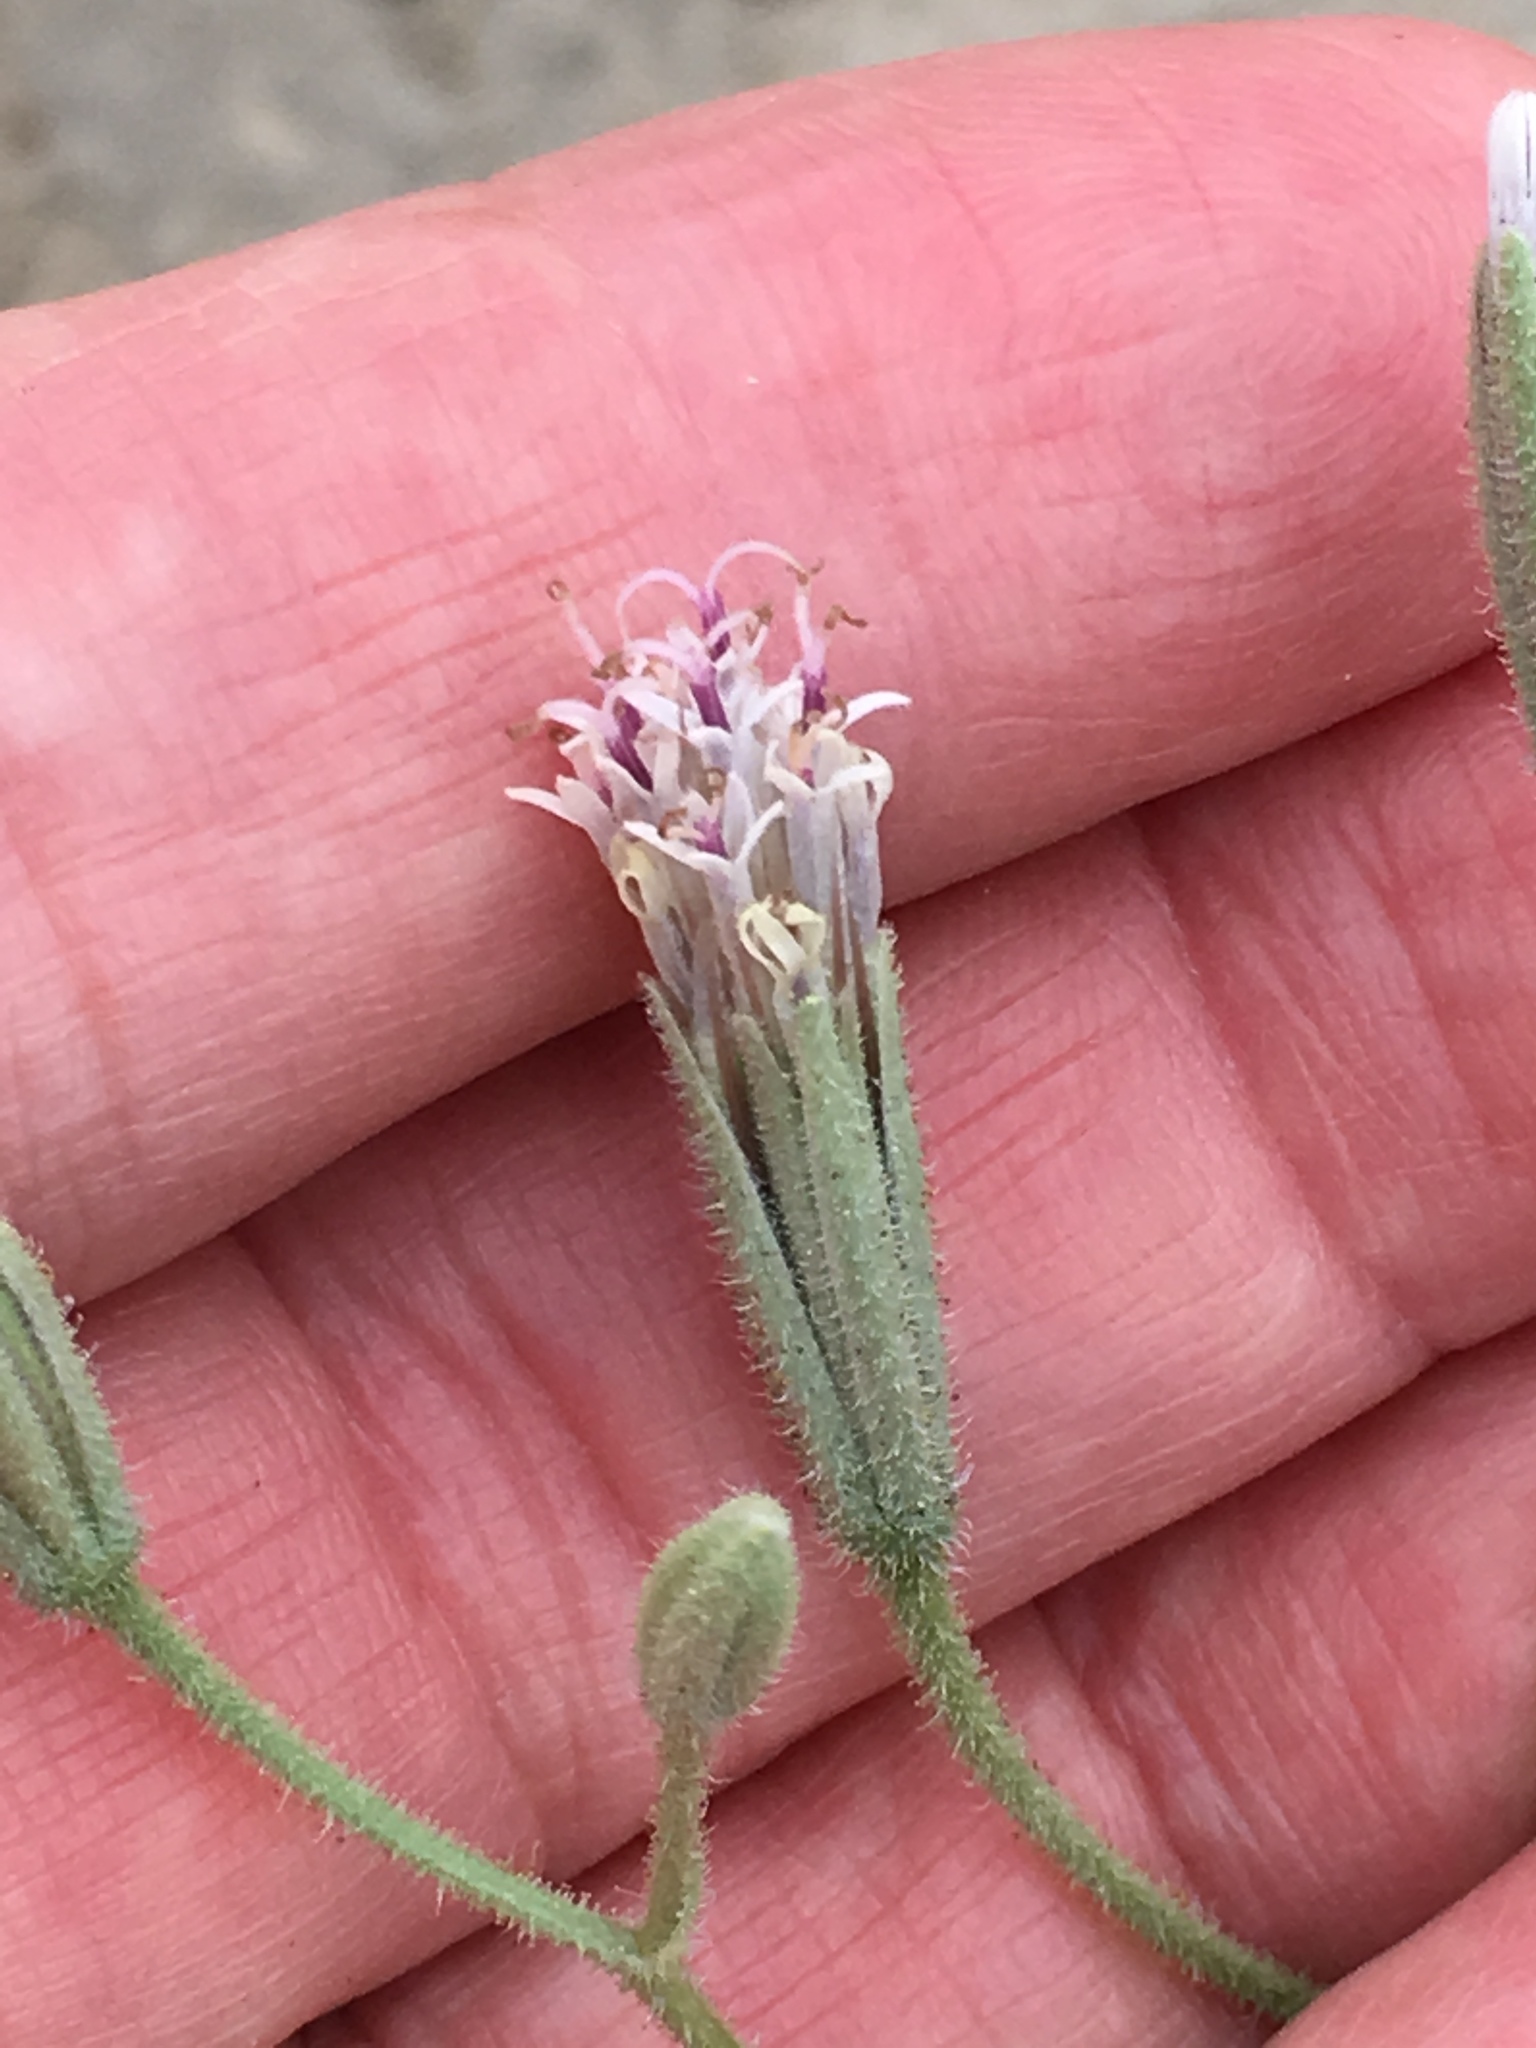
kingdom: Plantae
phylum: Tracheophyta
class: Magnoliopsida
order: Asterales
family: Asteraceae
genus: Palafoxia
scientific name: Palafoxia arida
